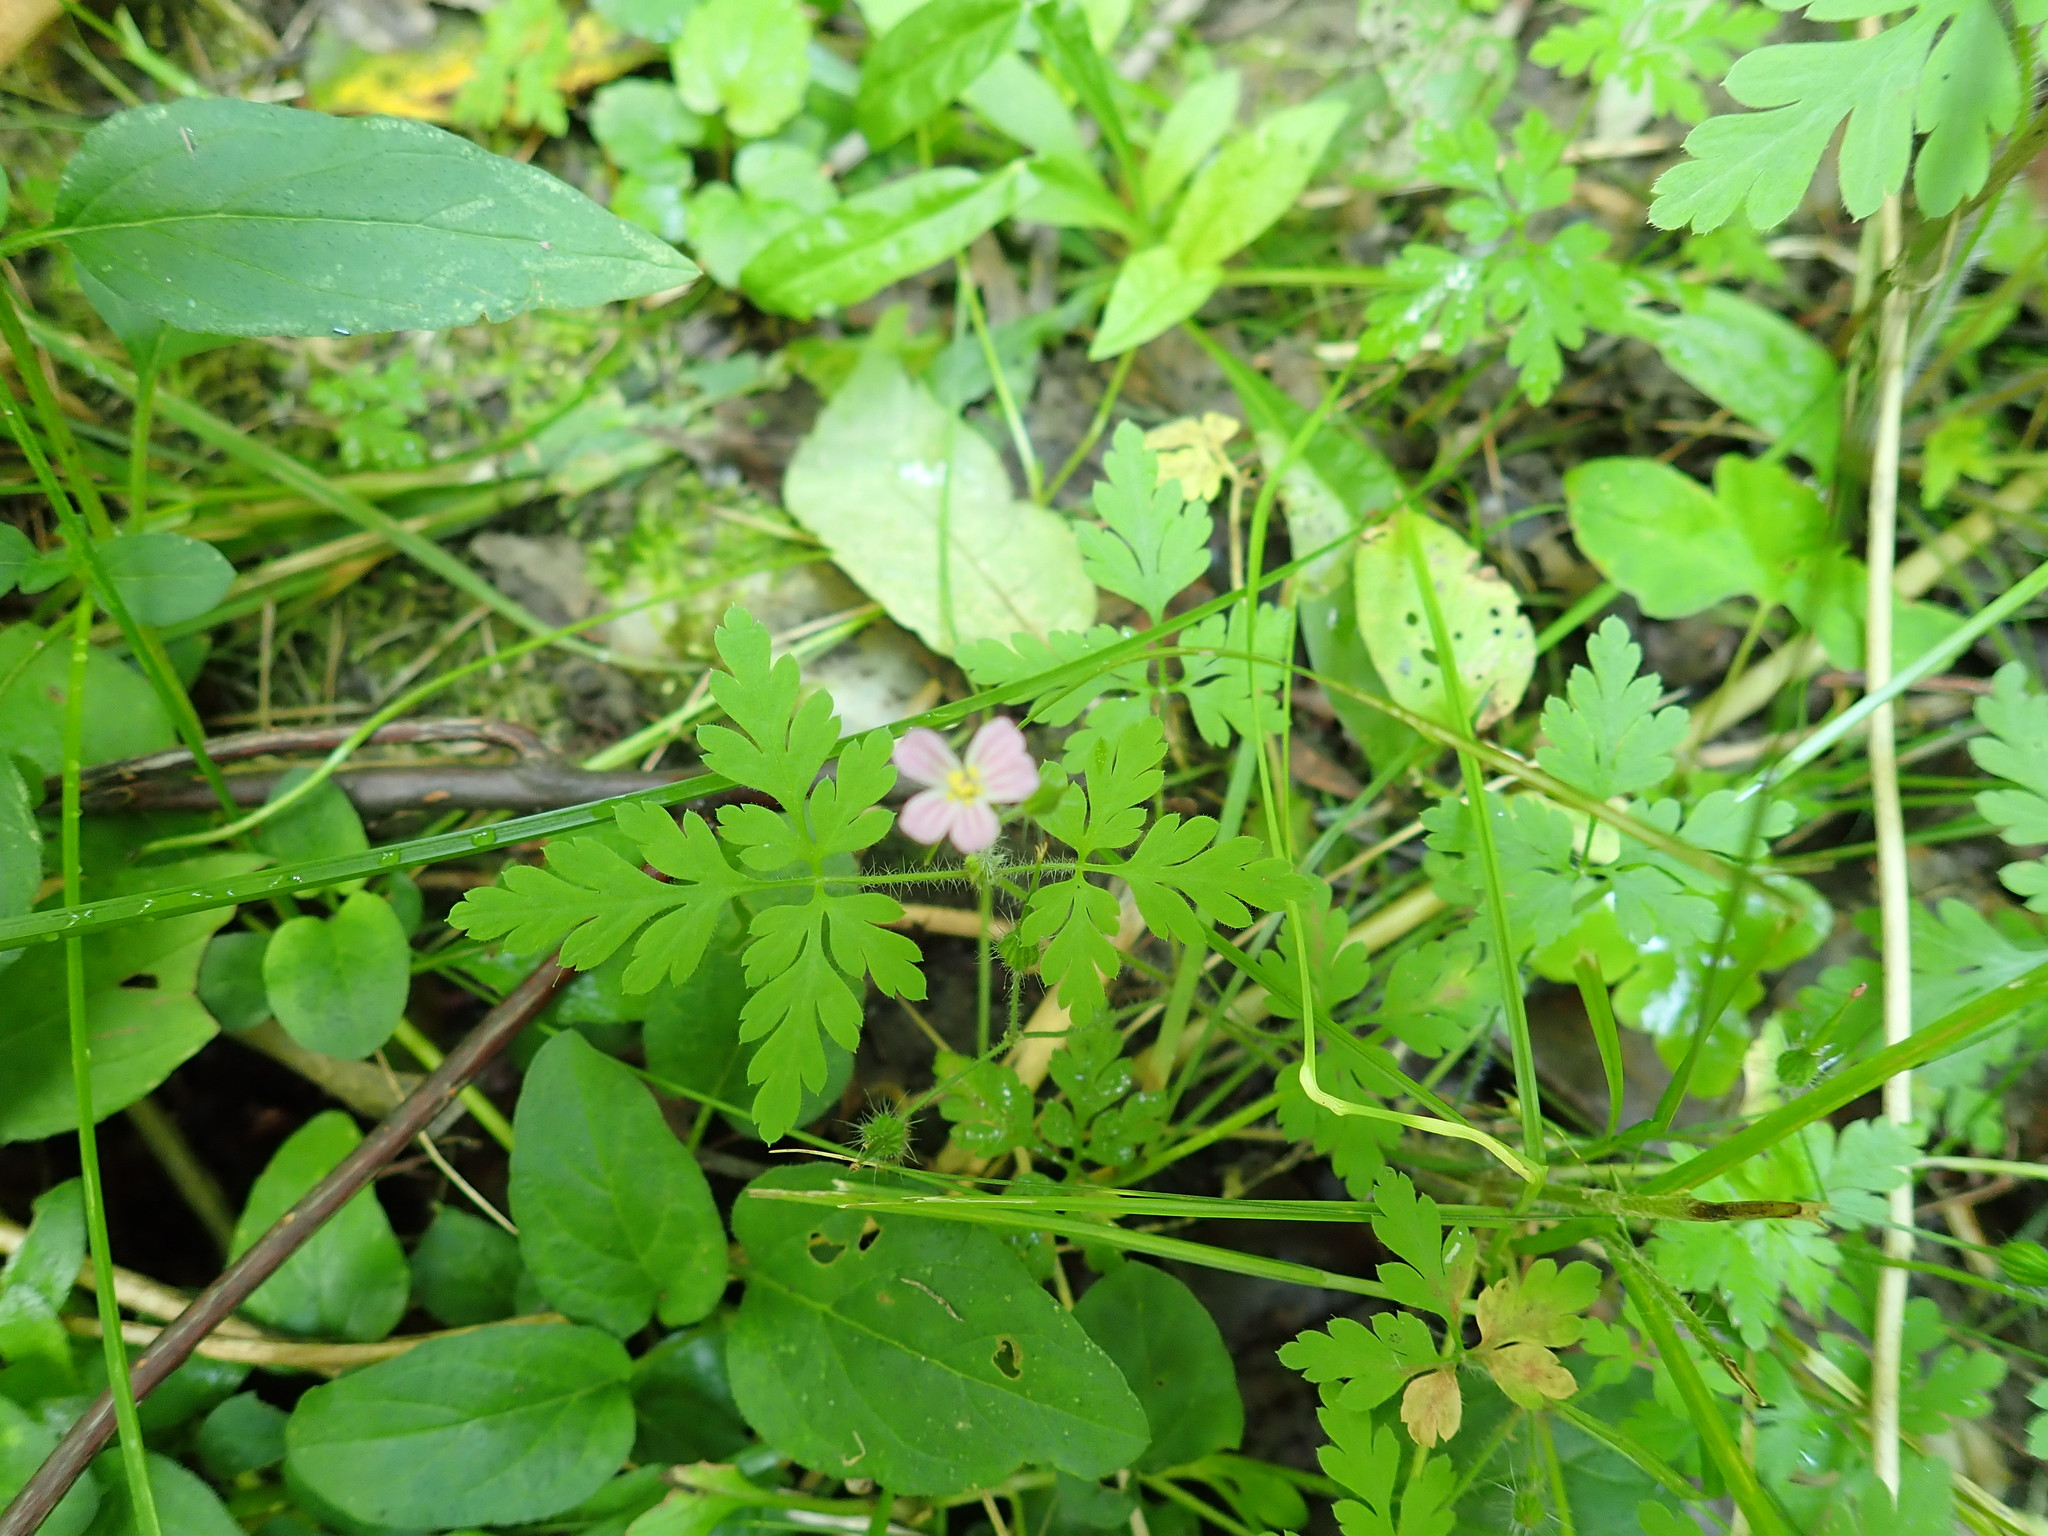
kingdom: Plantae
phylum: Tracheophyta
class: Magnoliopsida
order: Geraniales
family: Geraniaceae
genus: Geranium
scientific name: Geranium robertianum
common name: Herb-robert
